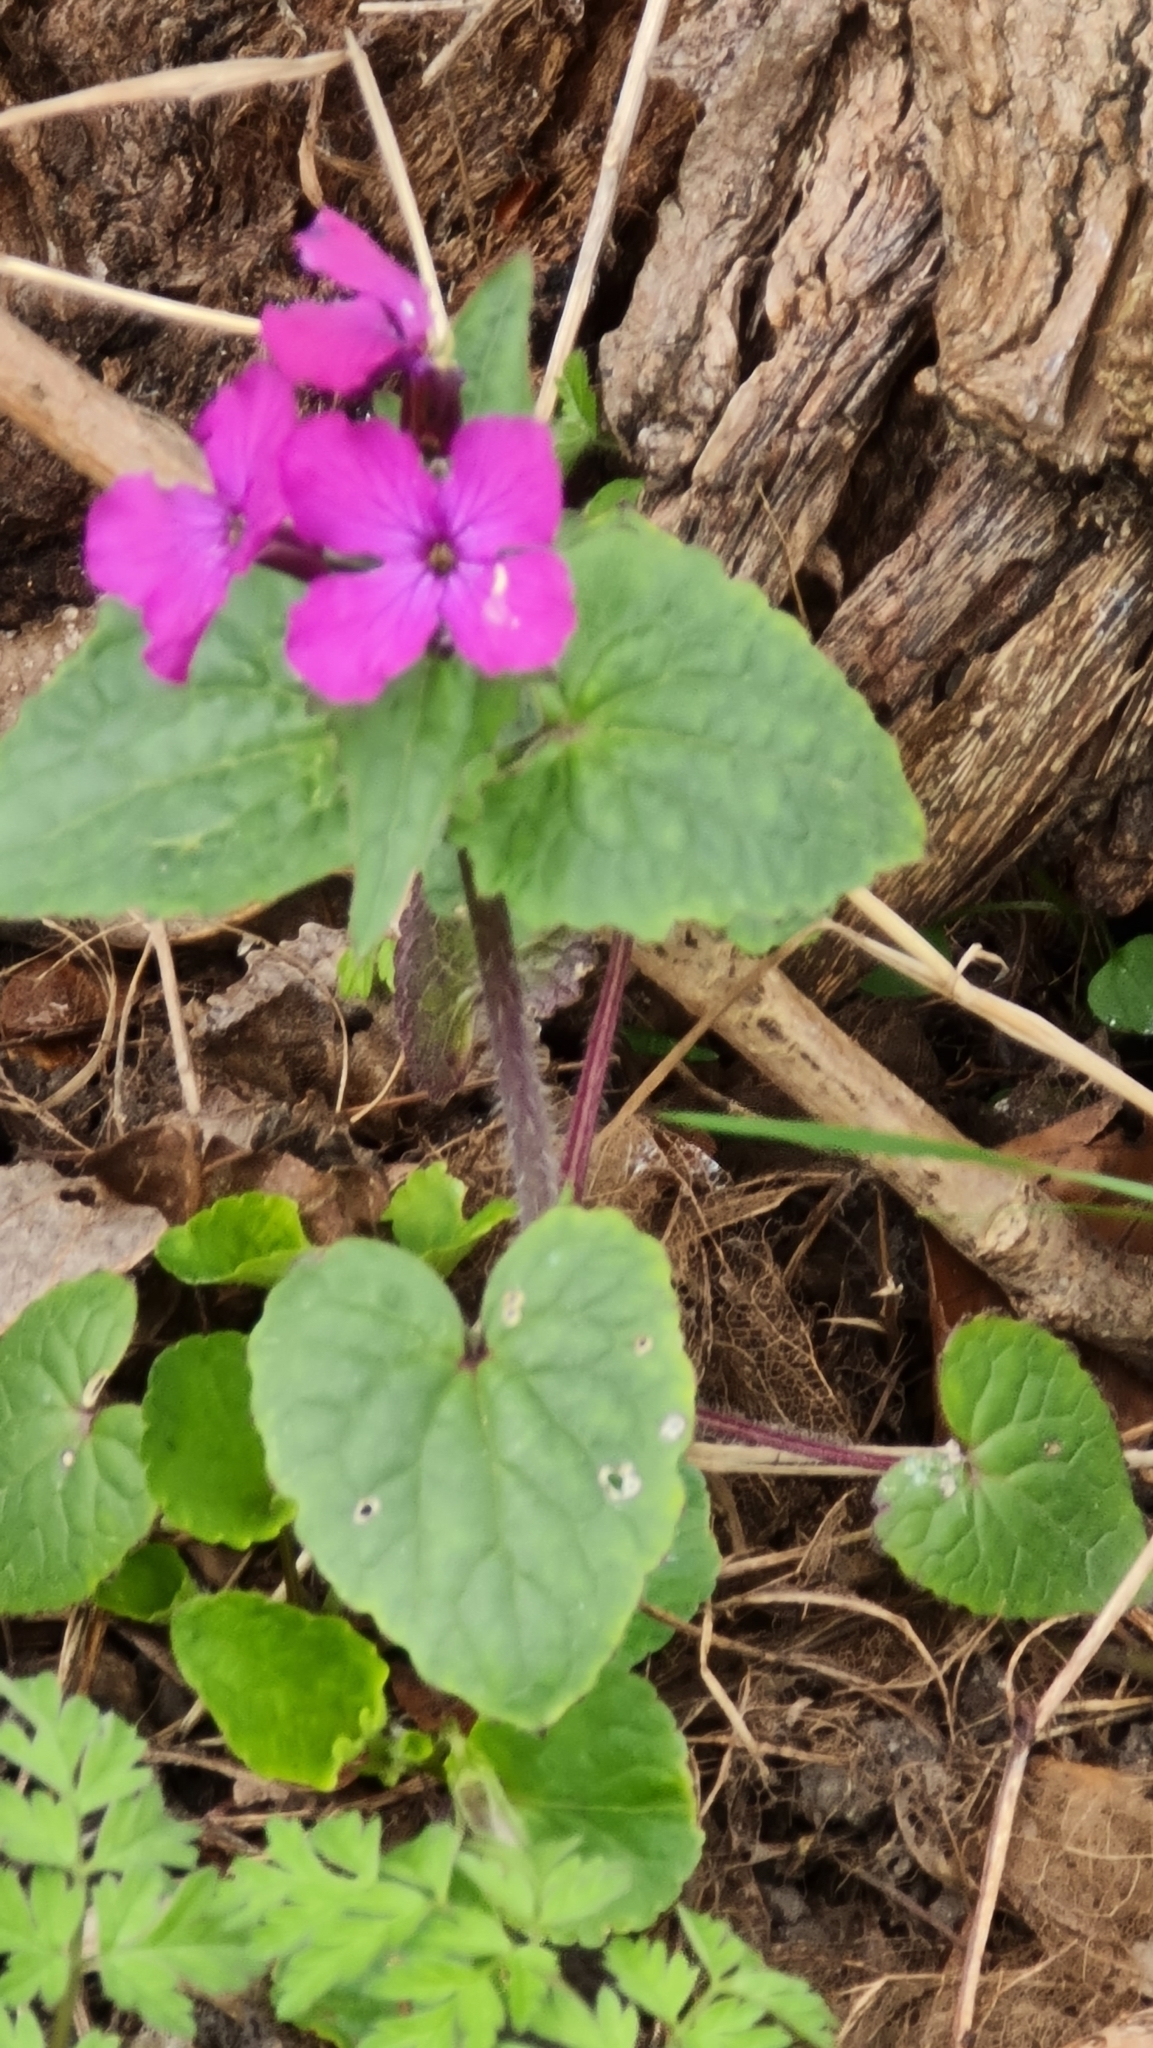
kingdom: Plantae
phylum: Tracheophyta
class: Magnoliopsida
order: Brassicales
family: Brassicaceae
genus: Lunaria
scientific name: Lunaria annua
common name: Honesty
